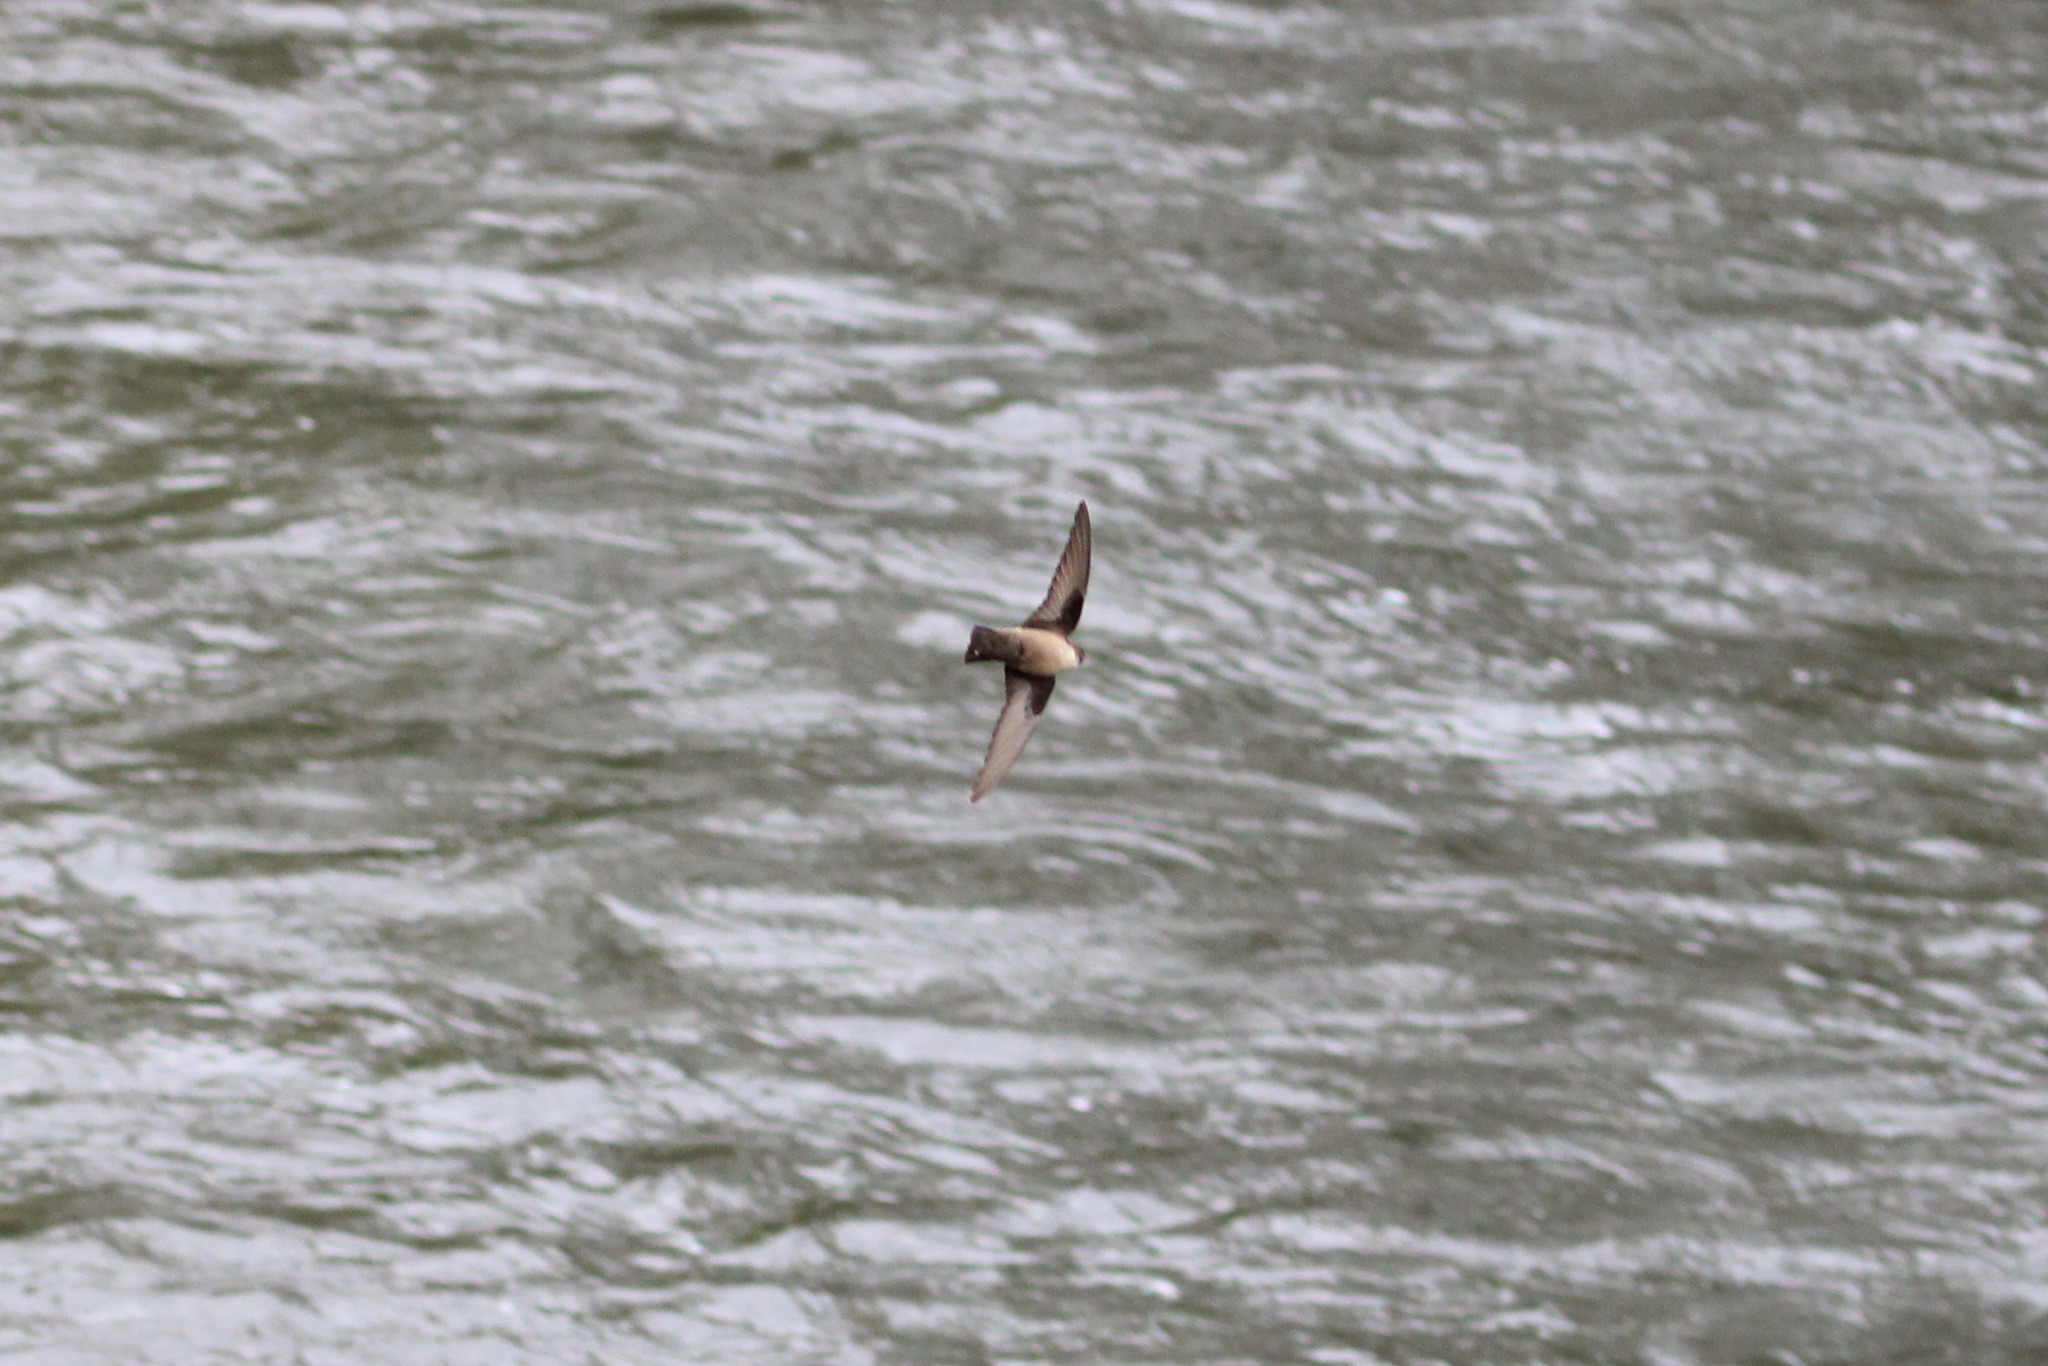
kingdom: Animalia
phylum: Chordata
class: Aves
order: Passeriformes
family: Hirundinidae
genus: Ptyonoprogne
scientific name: Ptyonoprogne rupestris
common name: Eurasian crag martin
